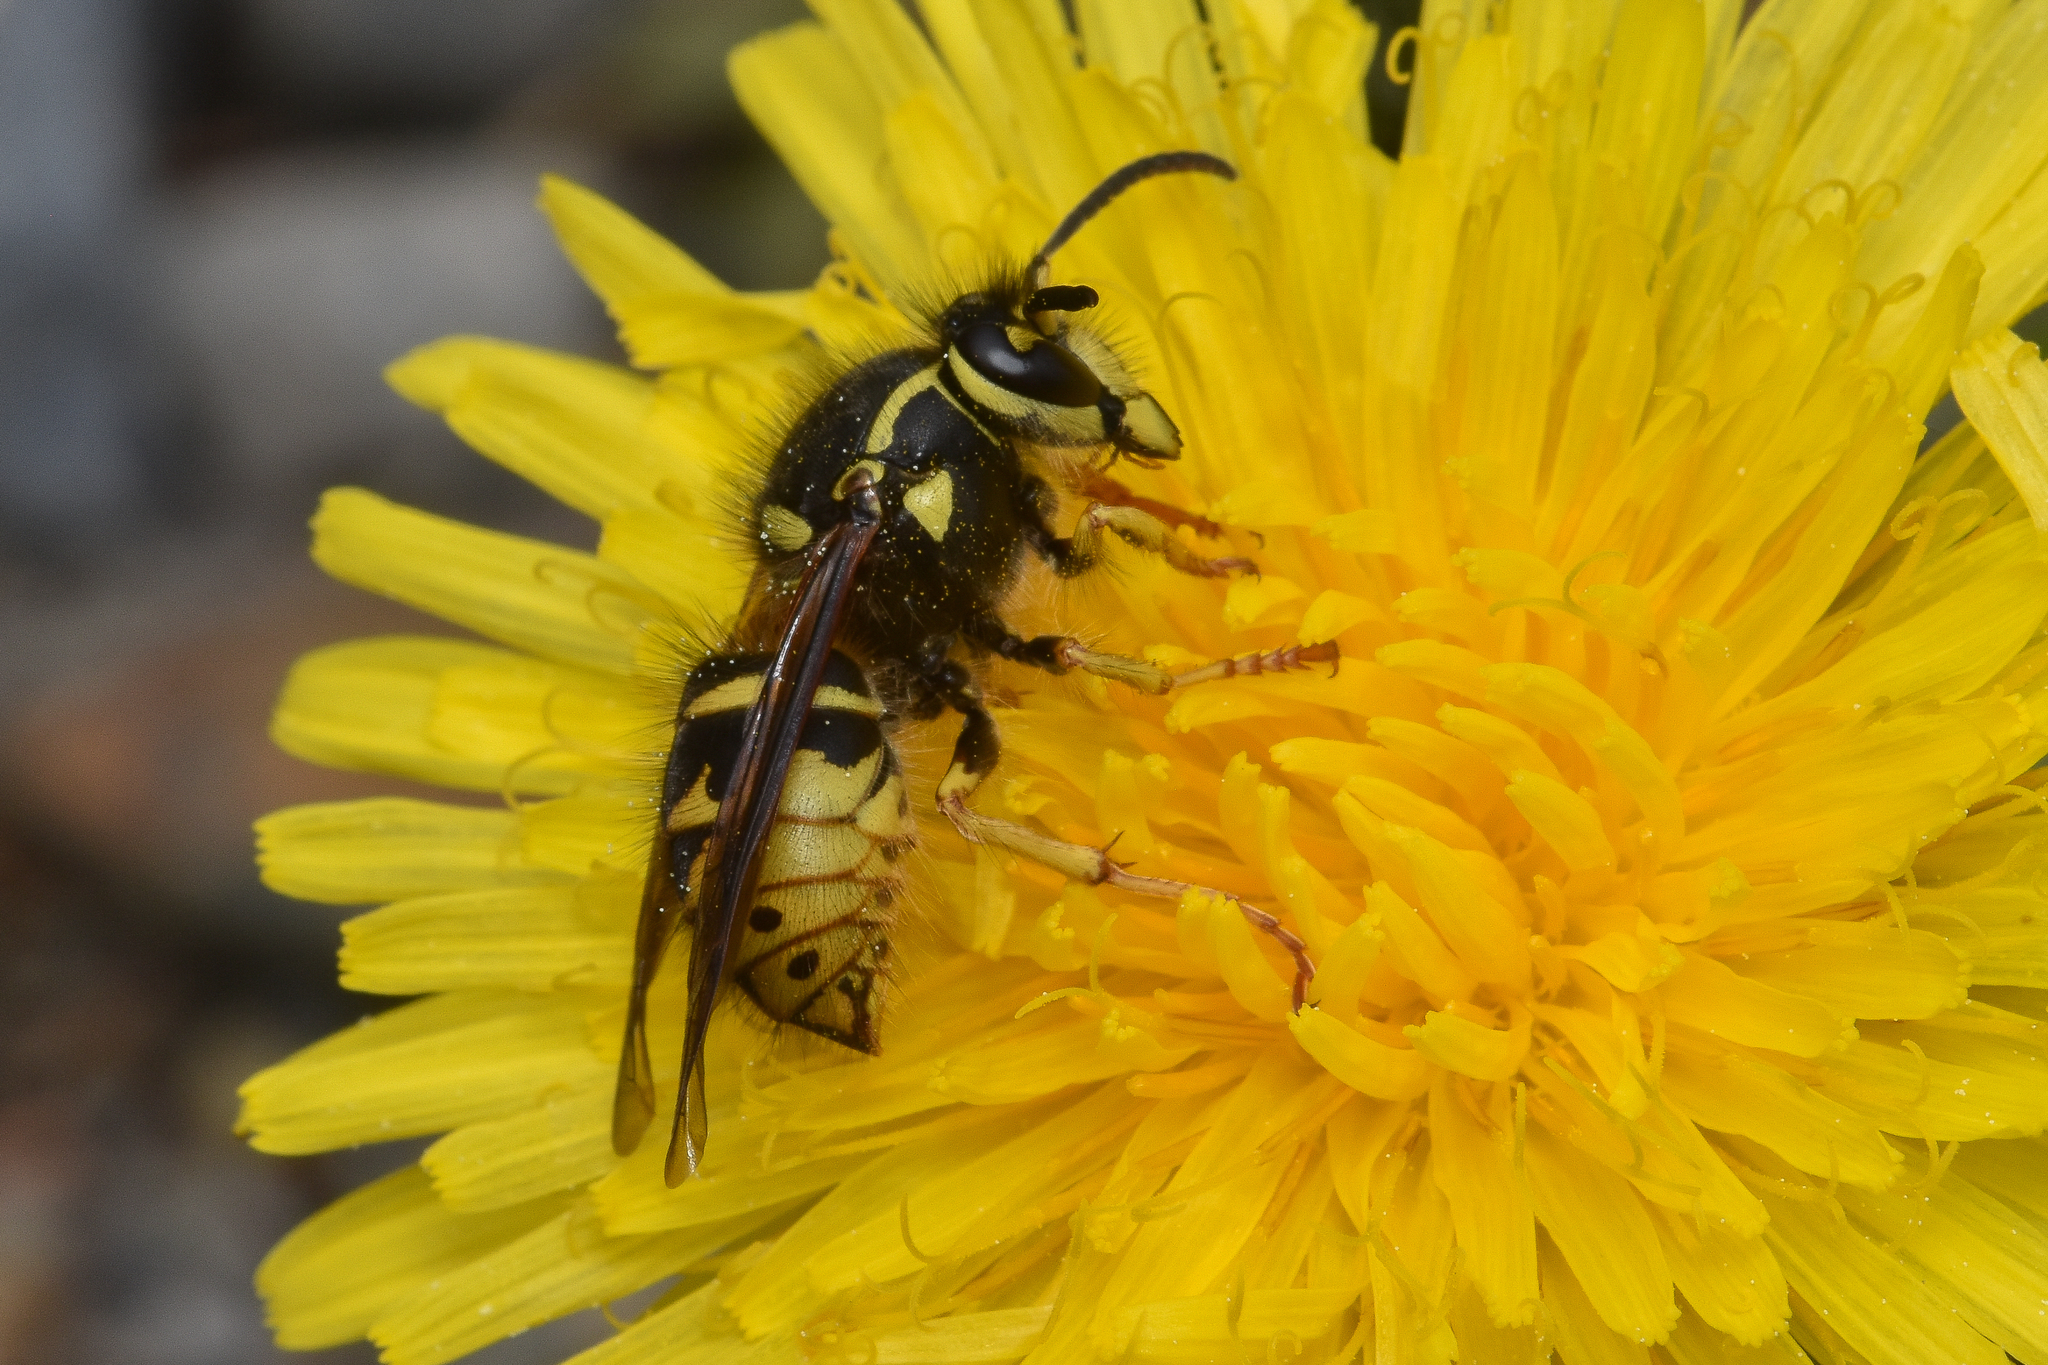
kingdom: Animalia
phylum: Arthropoda
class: Insecta
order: Hymenoptera
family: Vespidae
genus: Dolichovespula
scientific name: Dolichovespula arenaria
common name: Aerial yellowjacket
